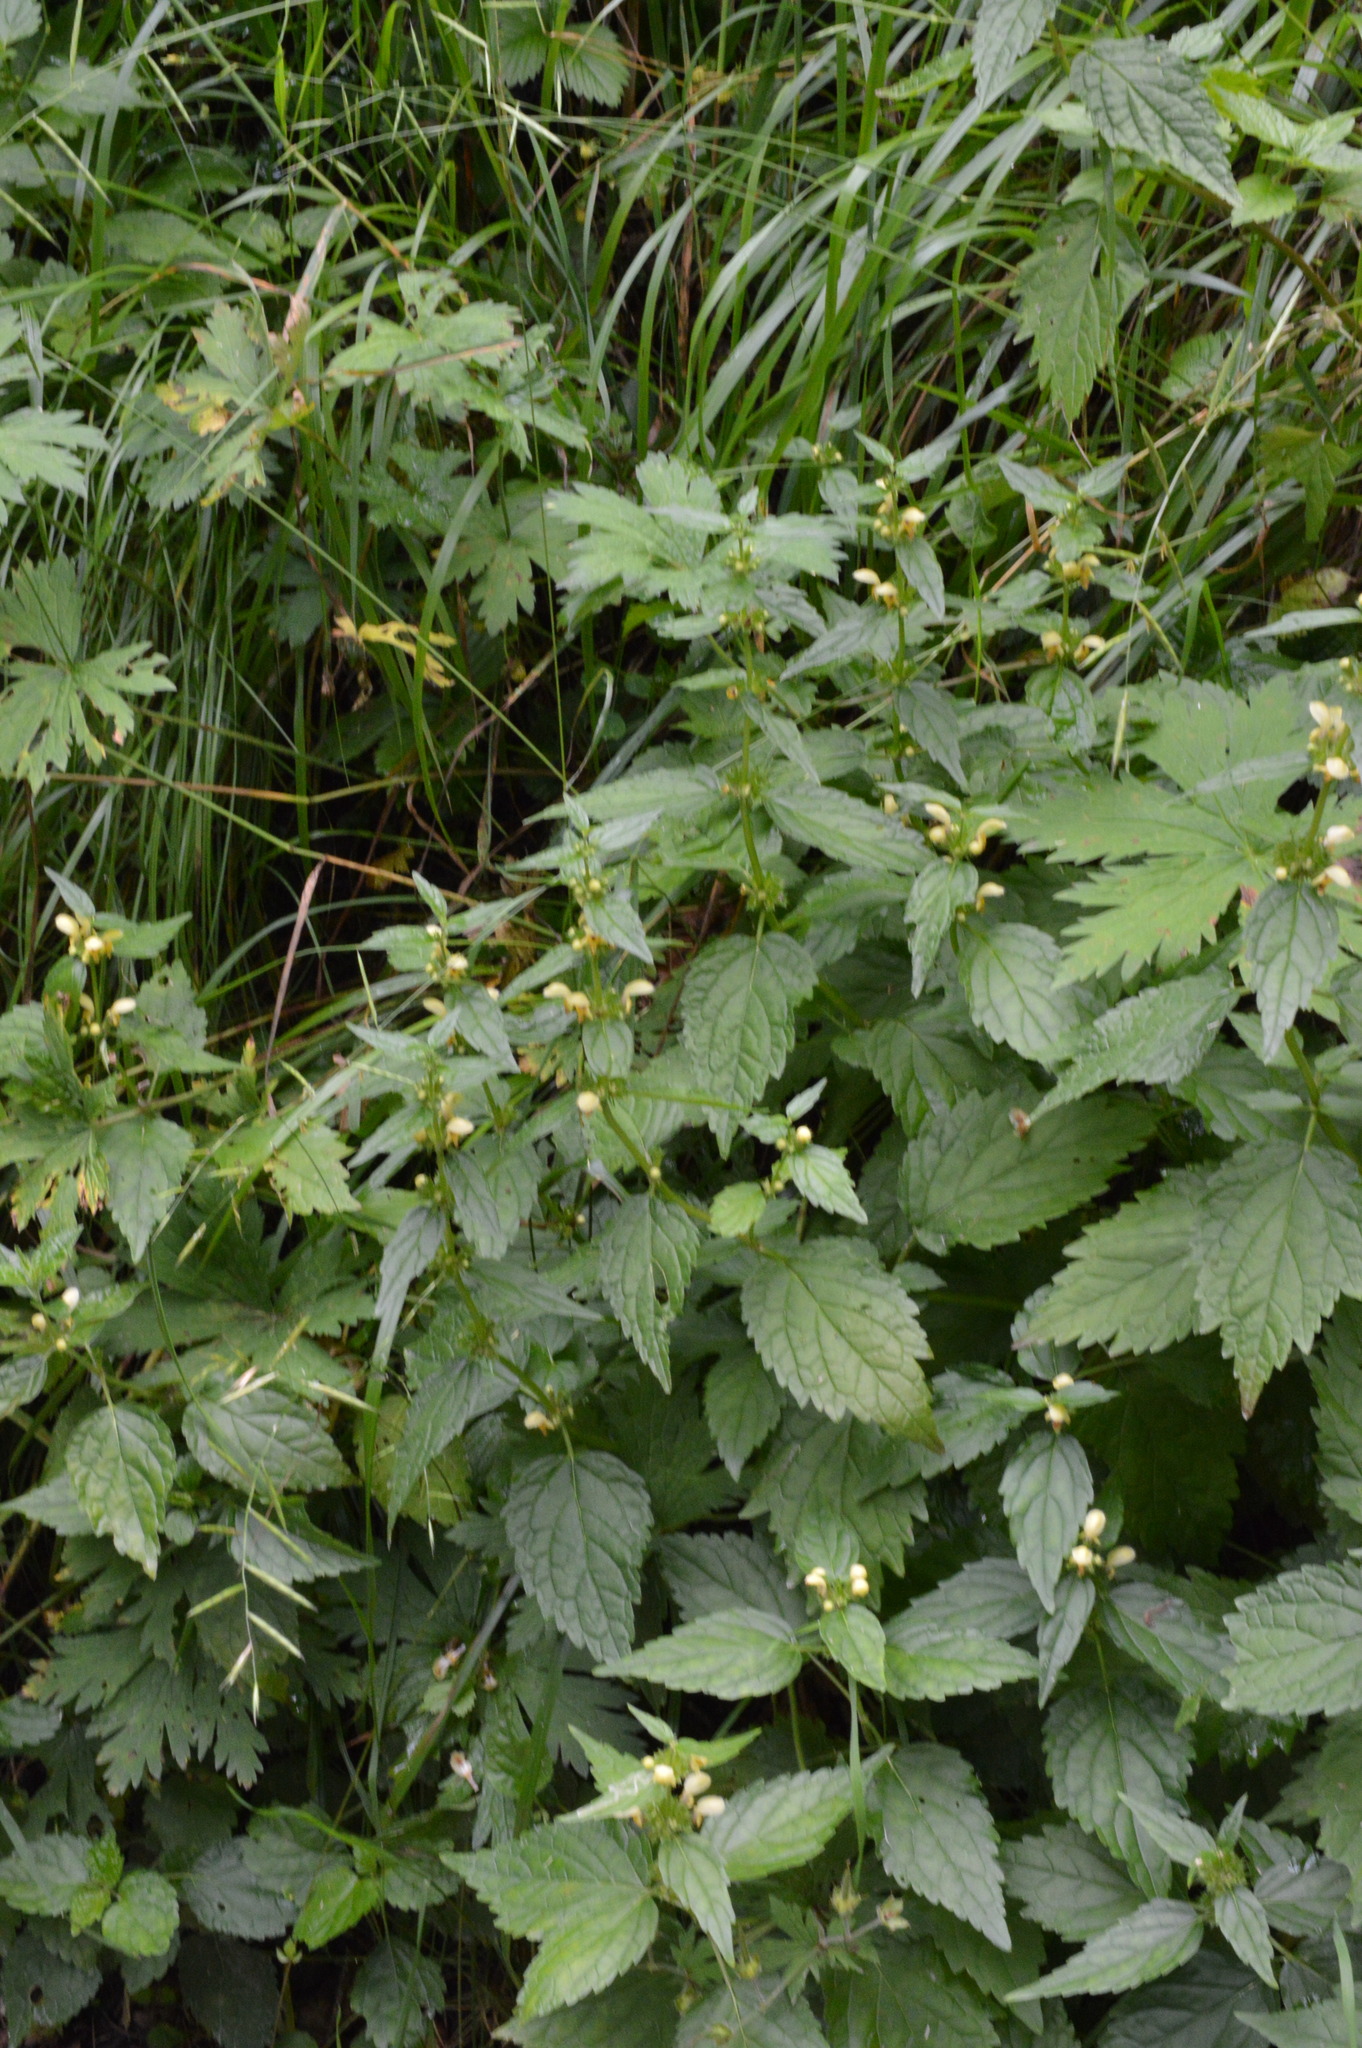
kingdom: Plantae
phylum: Tracheophyta
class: Magnoliopsida
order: Lamiales
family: Lamiaceae
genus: Lamium
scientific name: Lamium galeobdolon
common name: Yellow archangel
